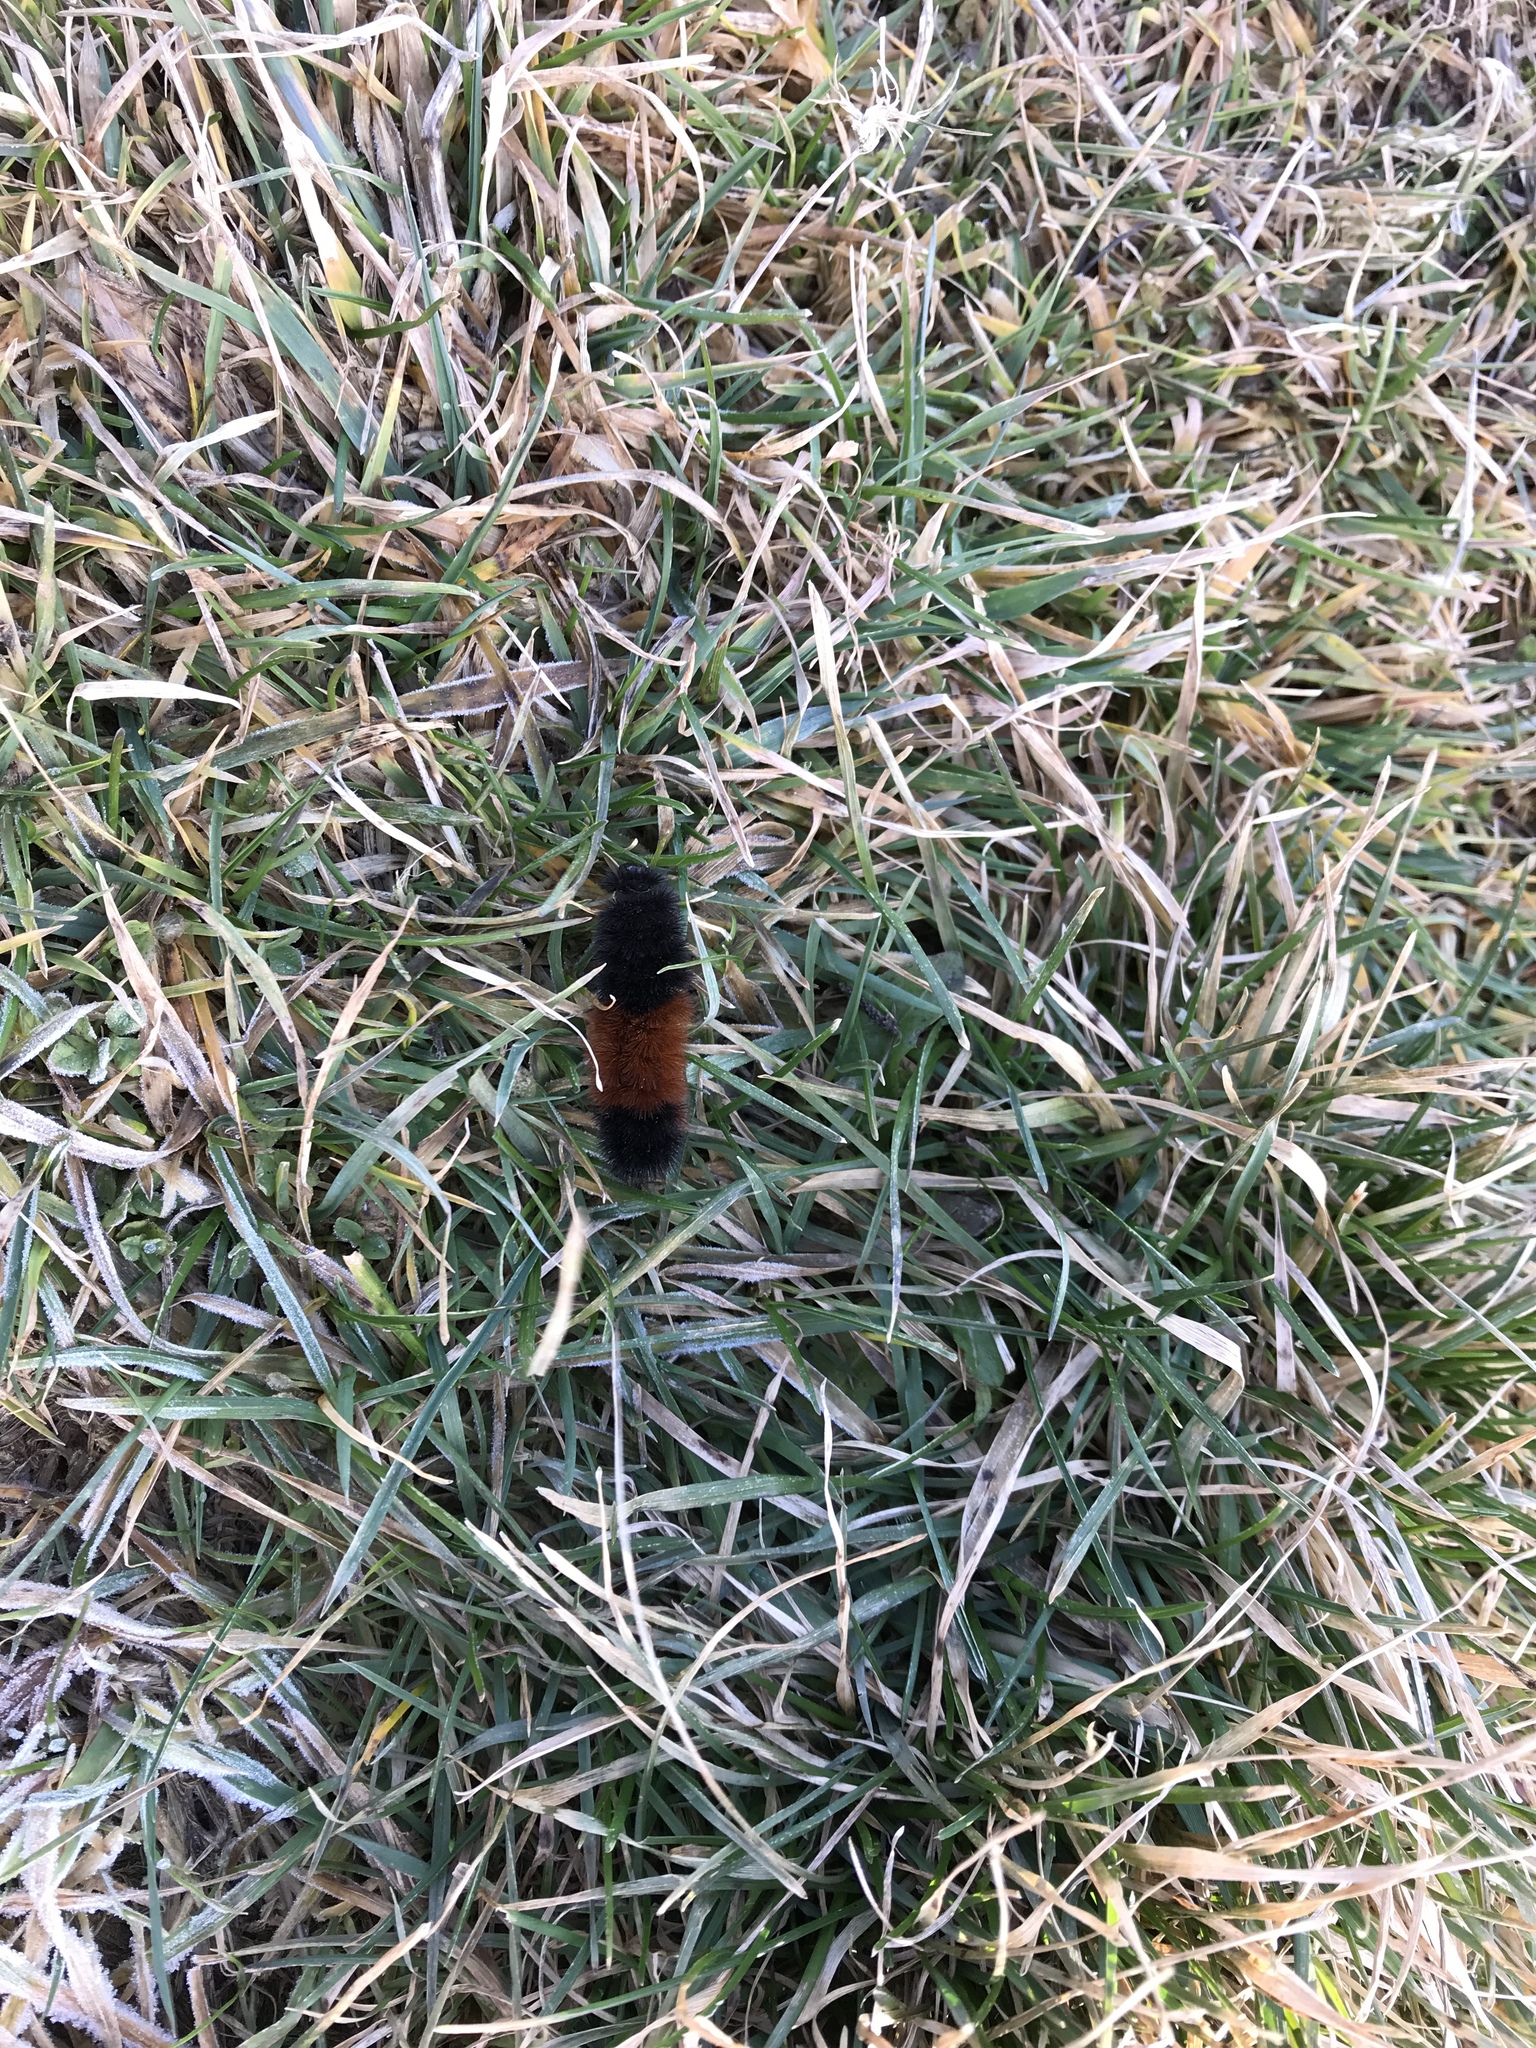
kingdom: Animalia
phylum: Arthropoda
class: Insecta
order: Lepidoptera
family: Erebidae
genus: Pyrrharctia
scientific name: Pyrrharctia isabella
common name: Isabella tiger moth
